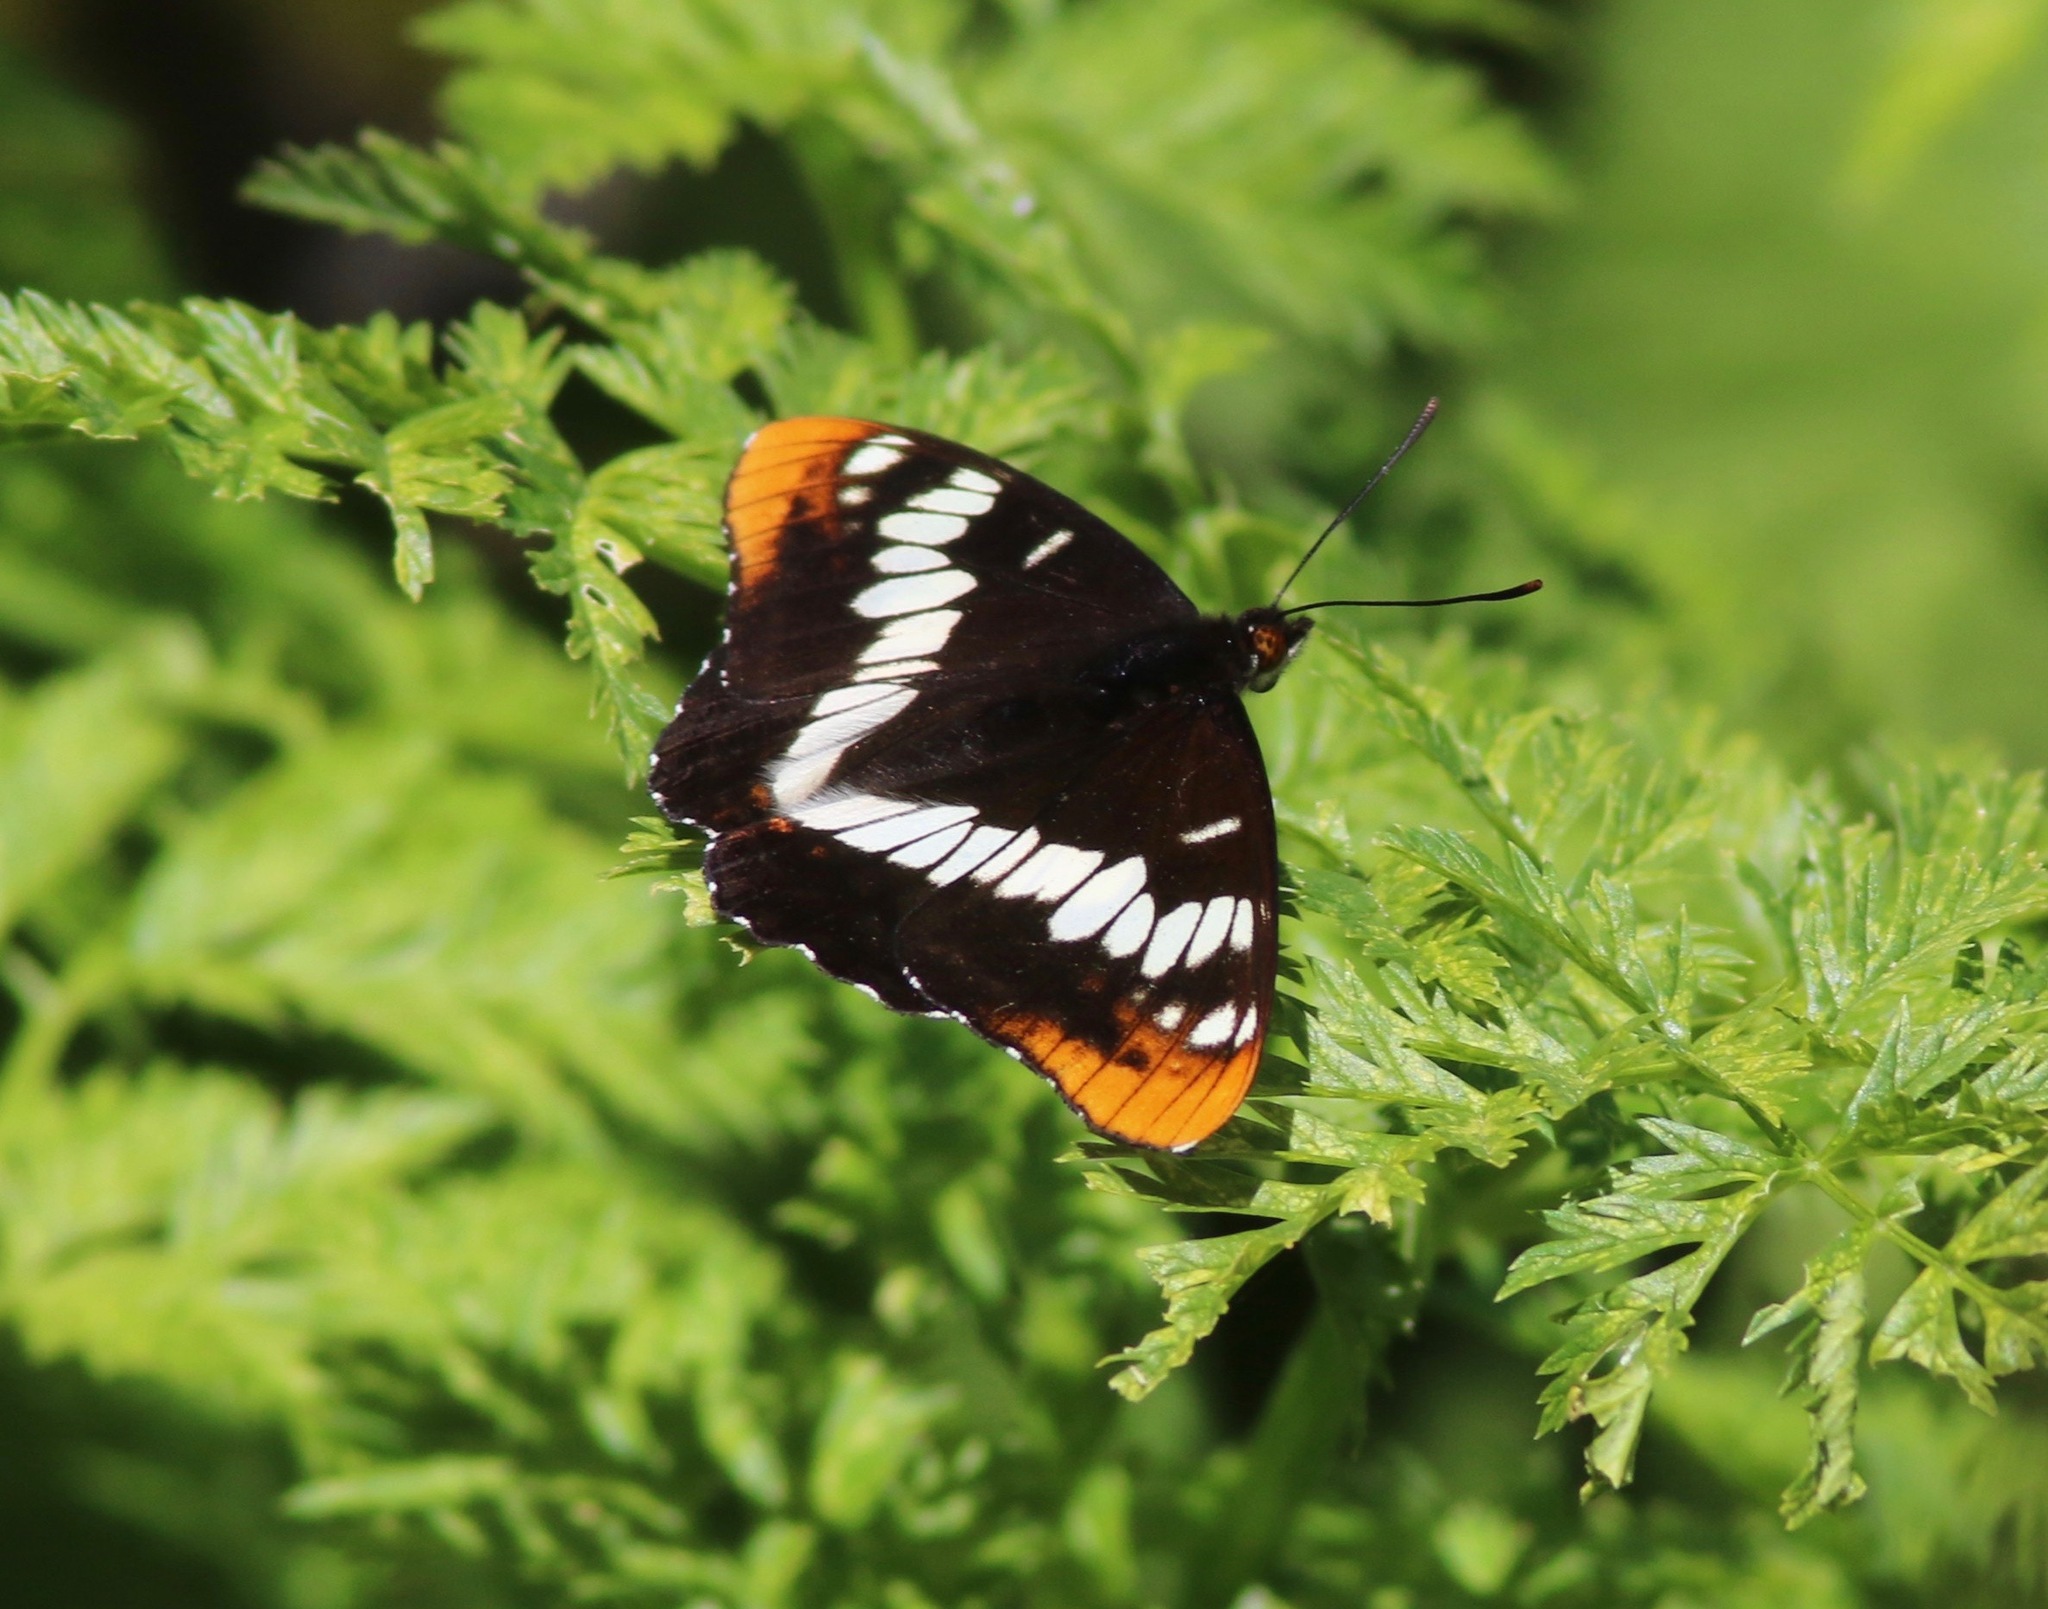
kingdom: Animalia
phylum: Arthropoda
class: Insecta
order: Lepidoptera
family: Nymphalidae
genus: Limenitis
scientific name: Limenitis lorquini
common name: Lorquin's admiral
